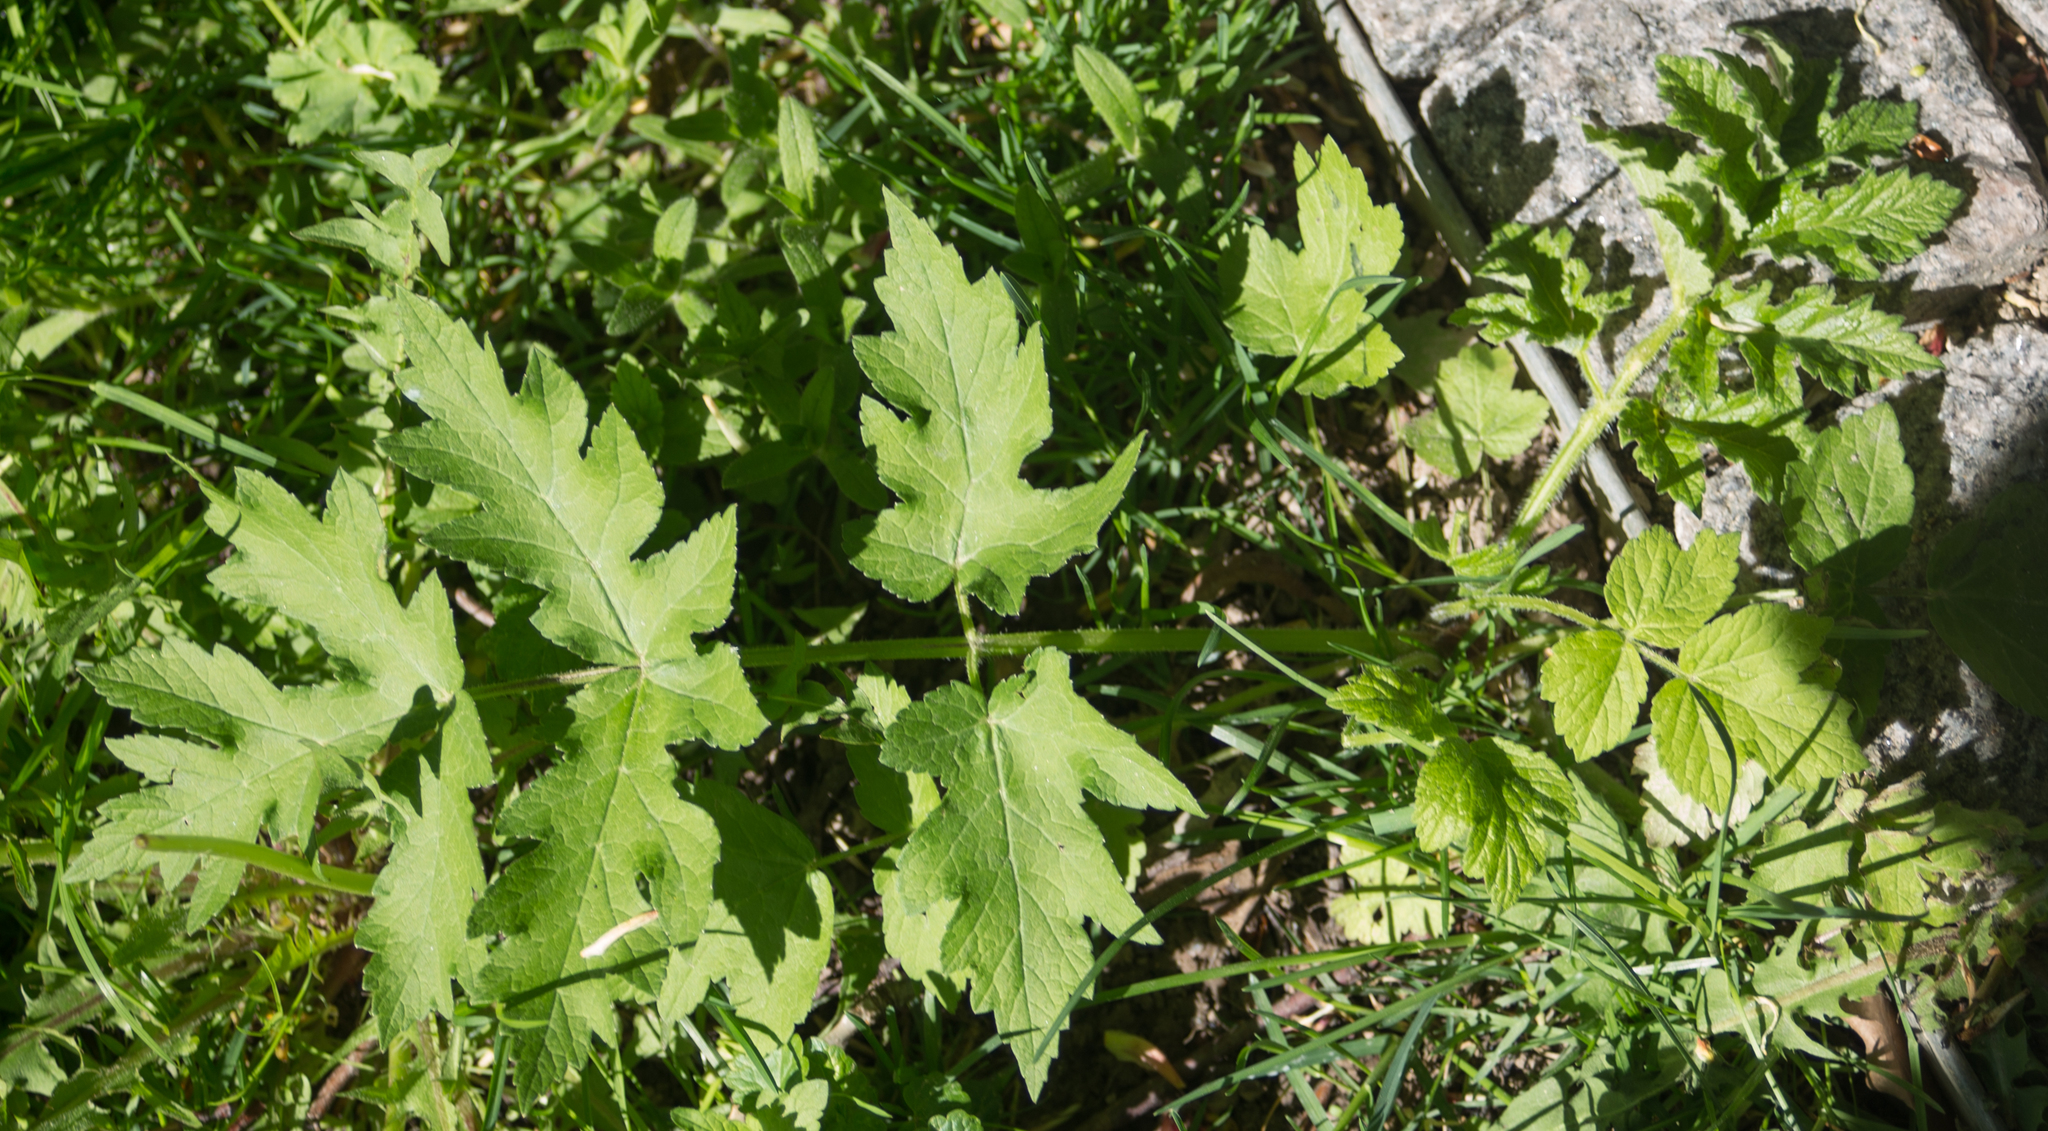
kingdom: Plantae
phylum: Tracheophyta
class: Magnoliopsida
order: Apiales
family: Apiaceae
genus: Heracleum
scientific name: Heracleum sphondylium
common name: Hogweed
